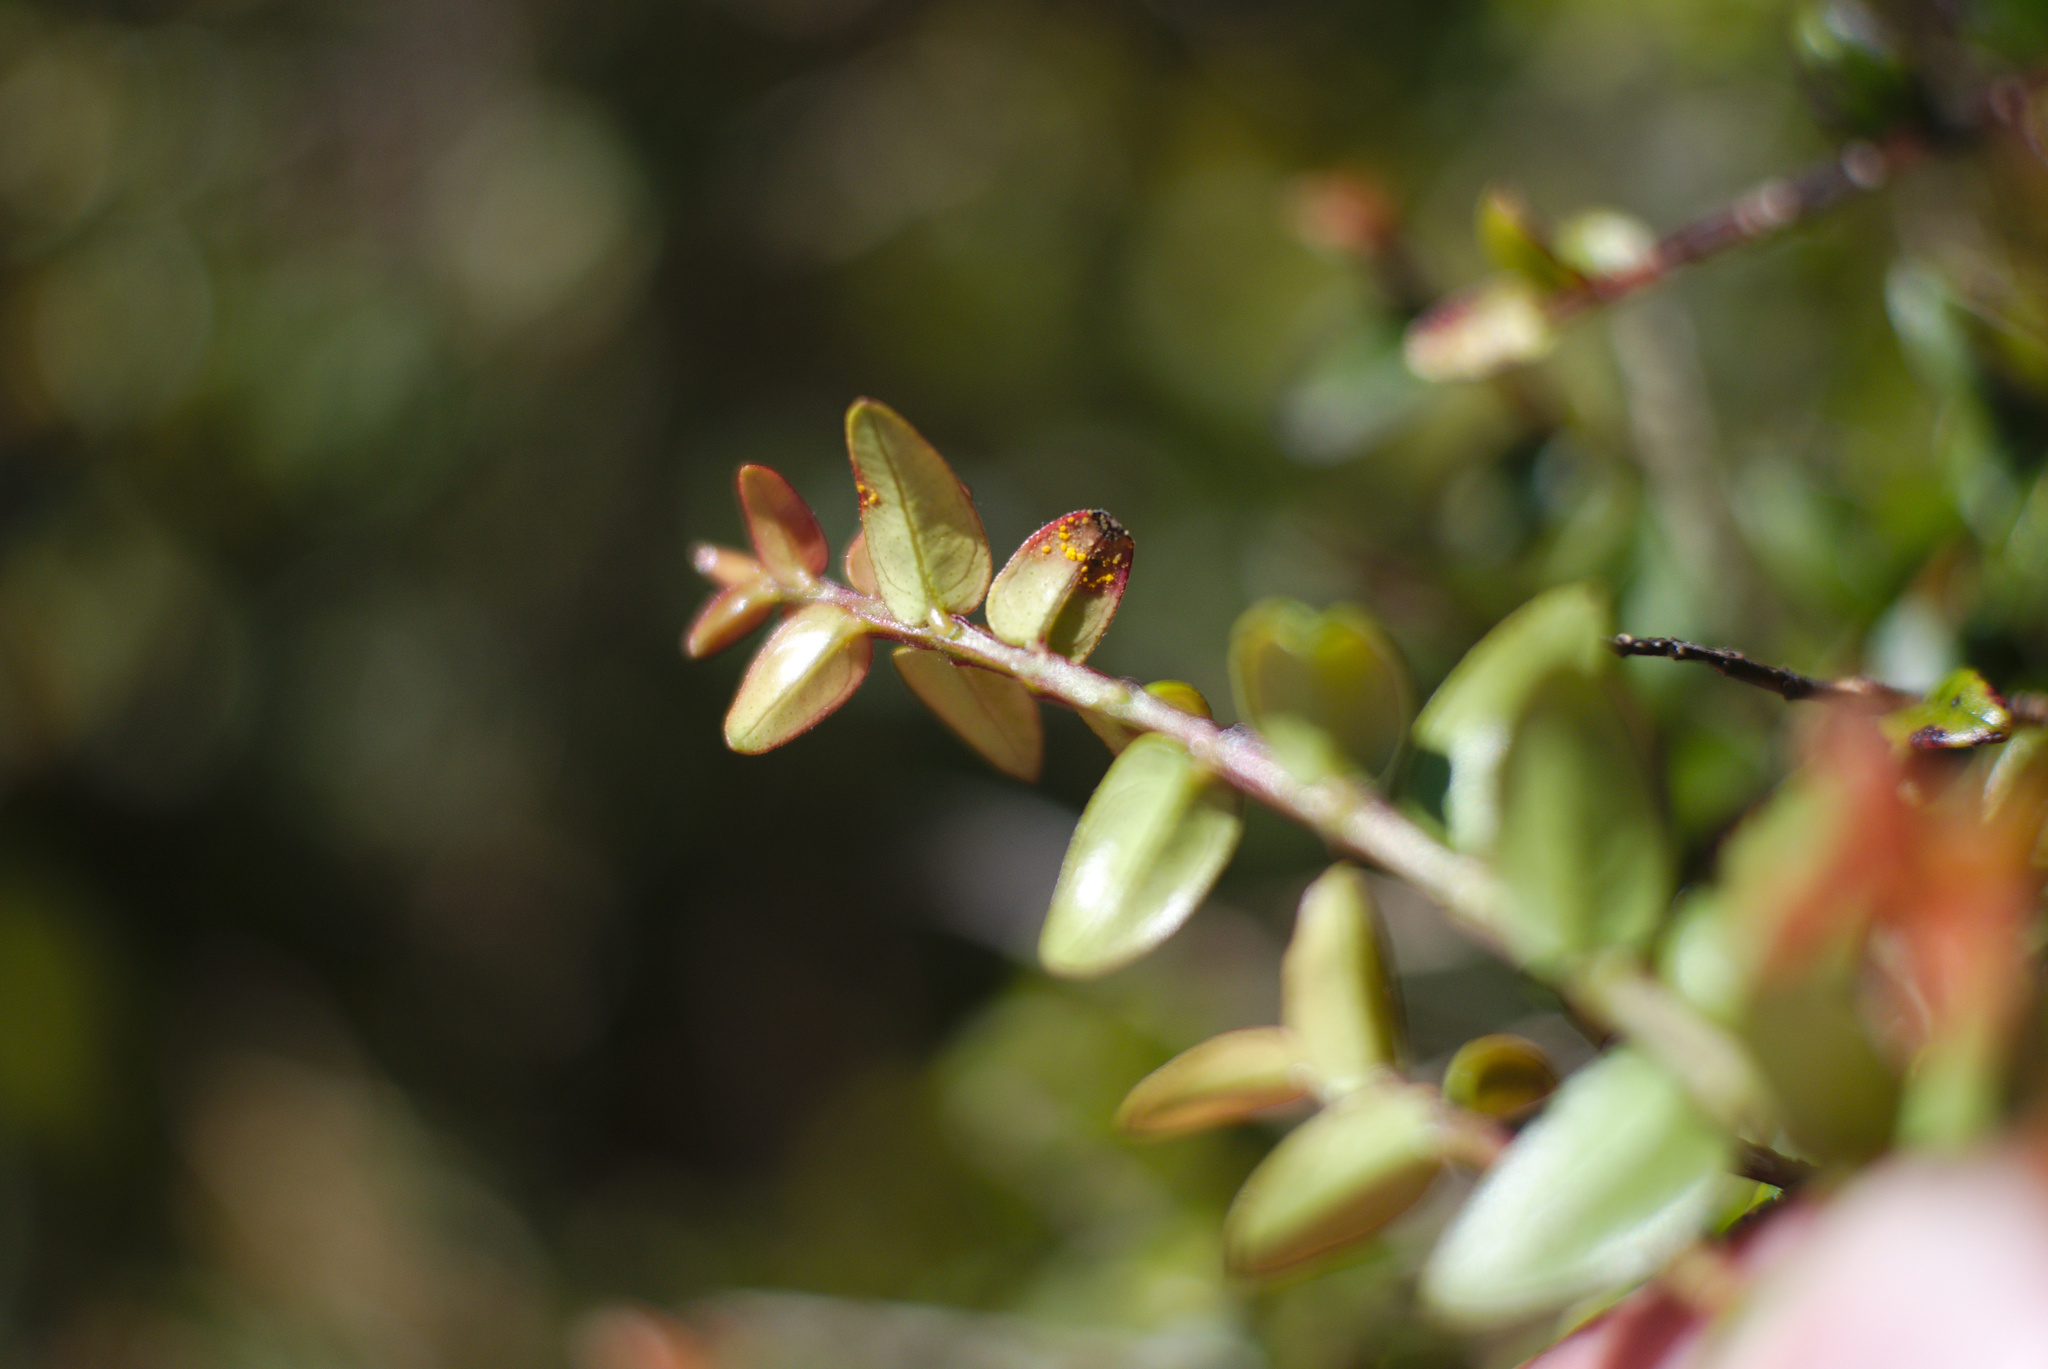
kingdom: Fungi
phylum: Basidiomycota
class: Pucciniomycetes
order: Pucciniales
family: Sphaerophragmiaceae
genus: Austropuccinia
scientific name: Austropuccinia psidii
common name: Myrtle rust
